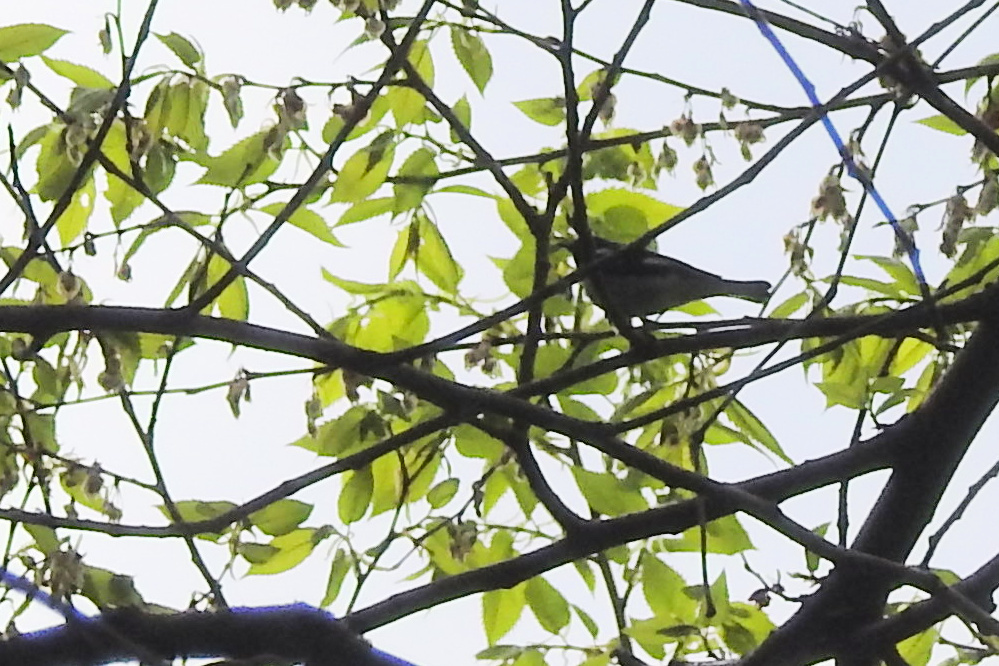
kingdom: Animalia
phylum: Chordata
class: Aves
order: Passeriformes
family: Parulidae
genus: Setophaga
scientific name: Setophaga caerulescens
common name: Black-throated blue warbler
